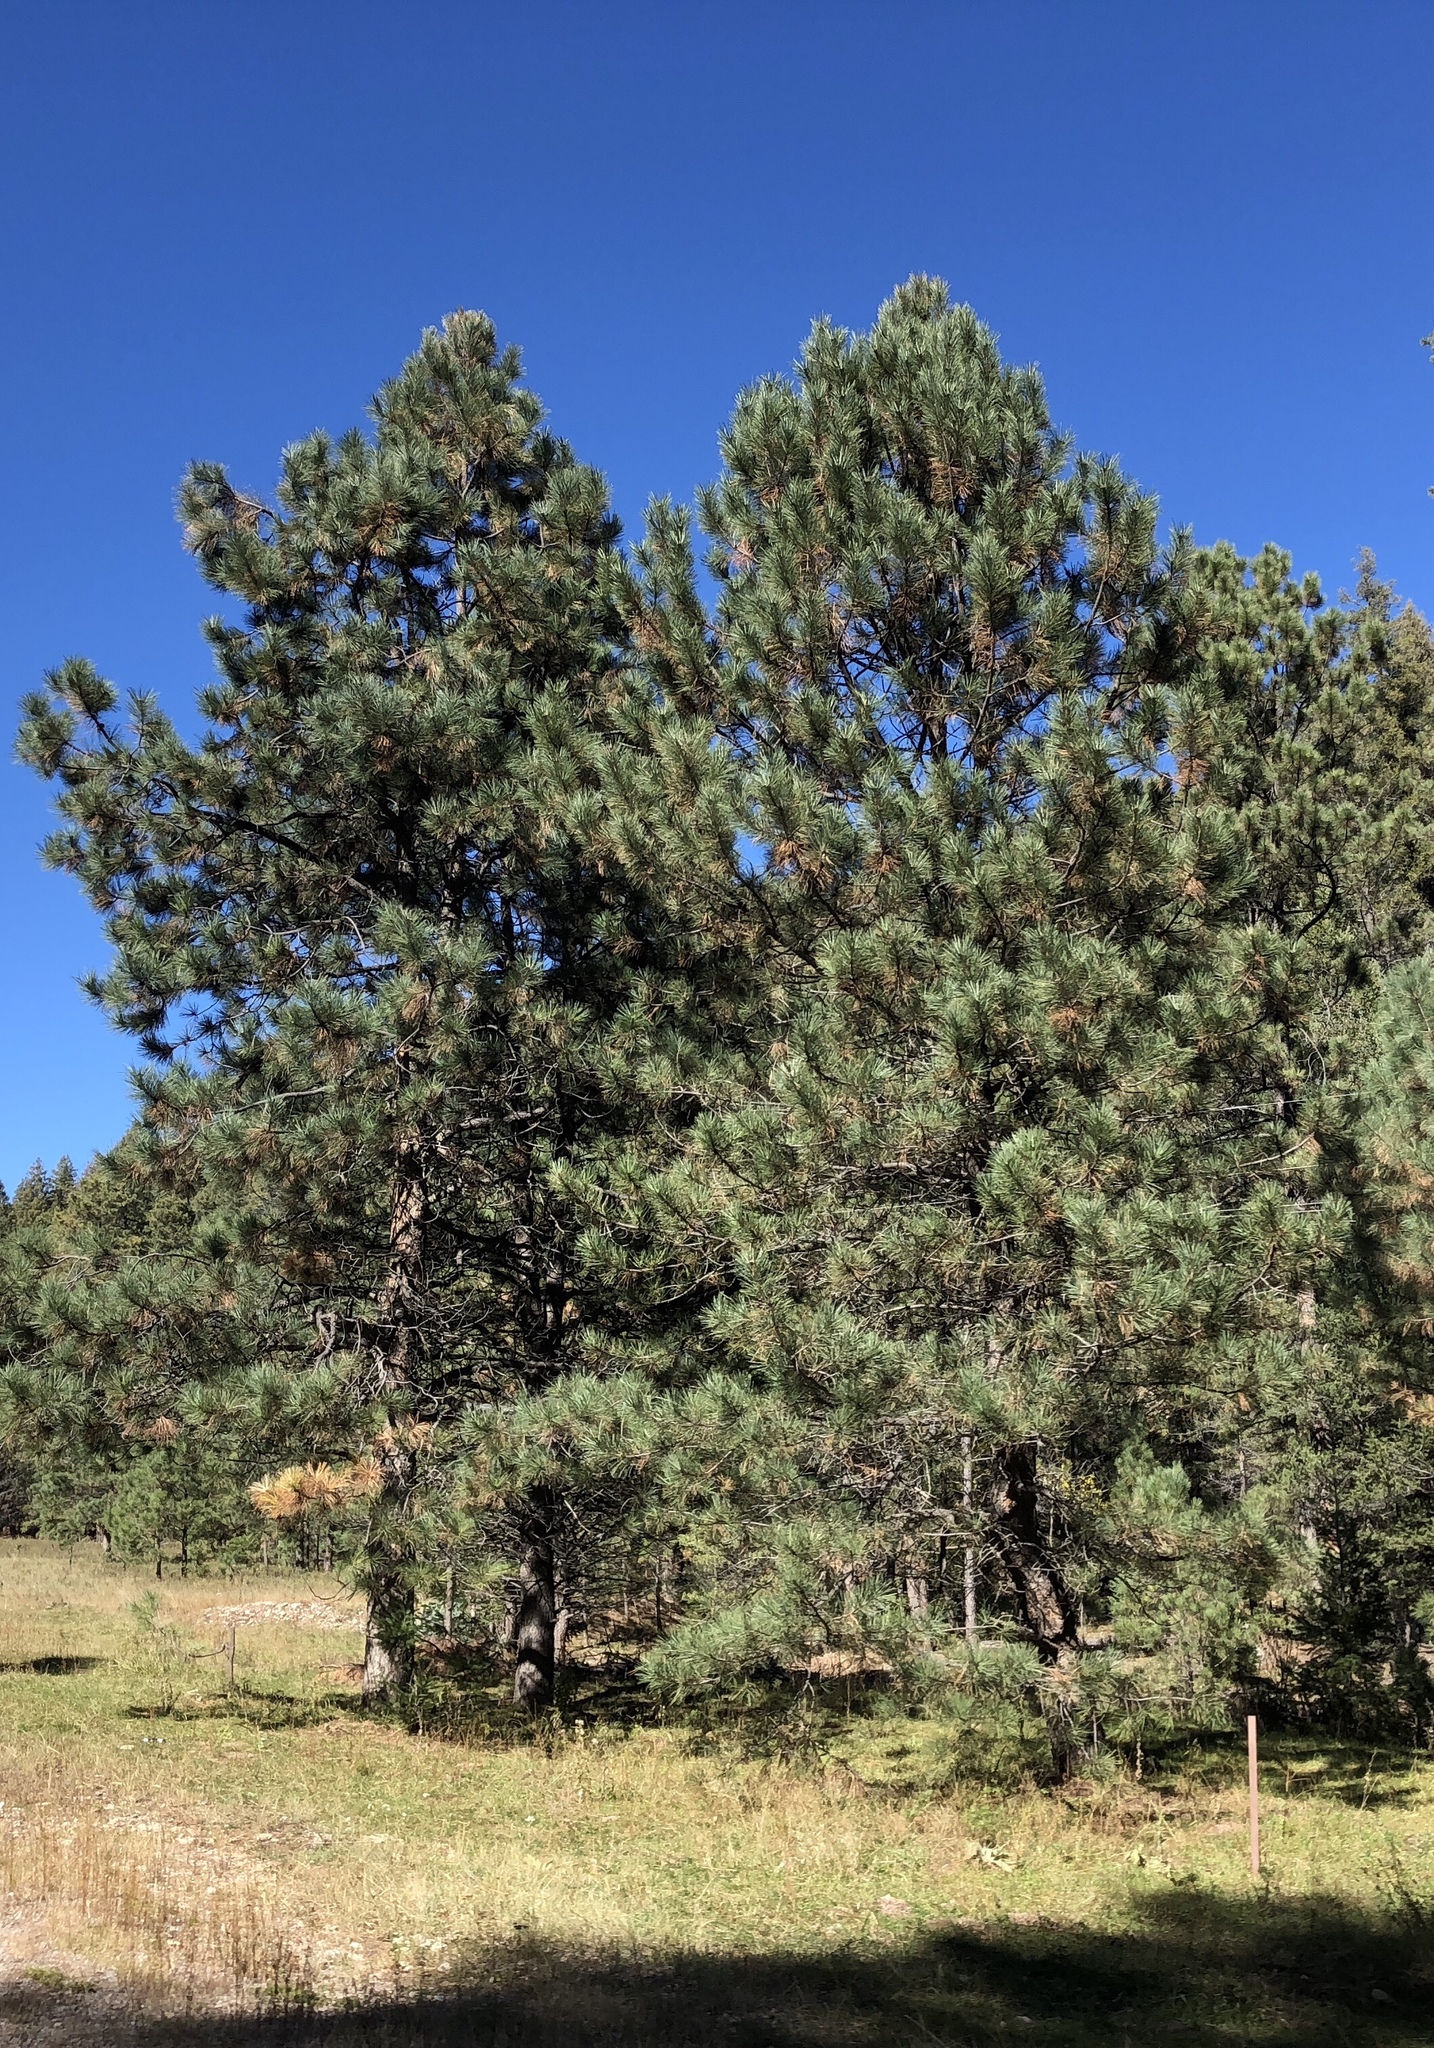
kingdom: Plantae
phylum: Tracheophyta
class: Pinopsida
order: Pinales
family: Pinaceae
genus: Pinus
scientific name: Pinus ponderosa
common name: Western yellow-pine
